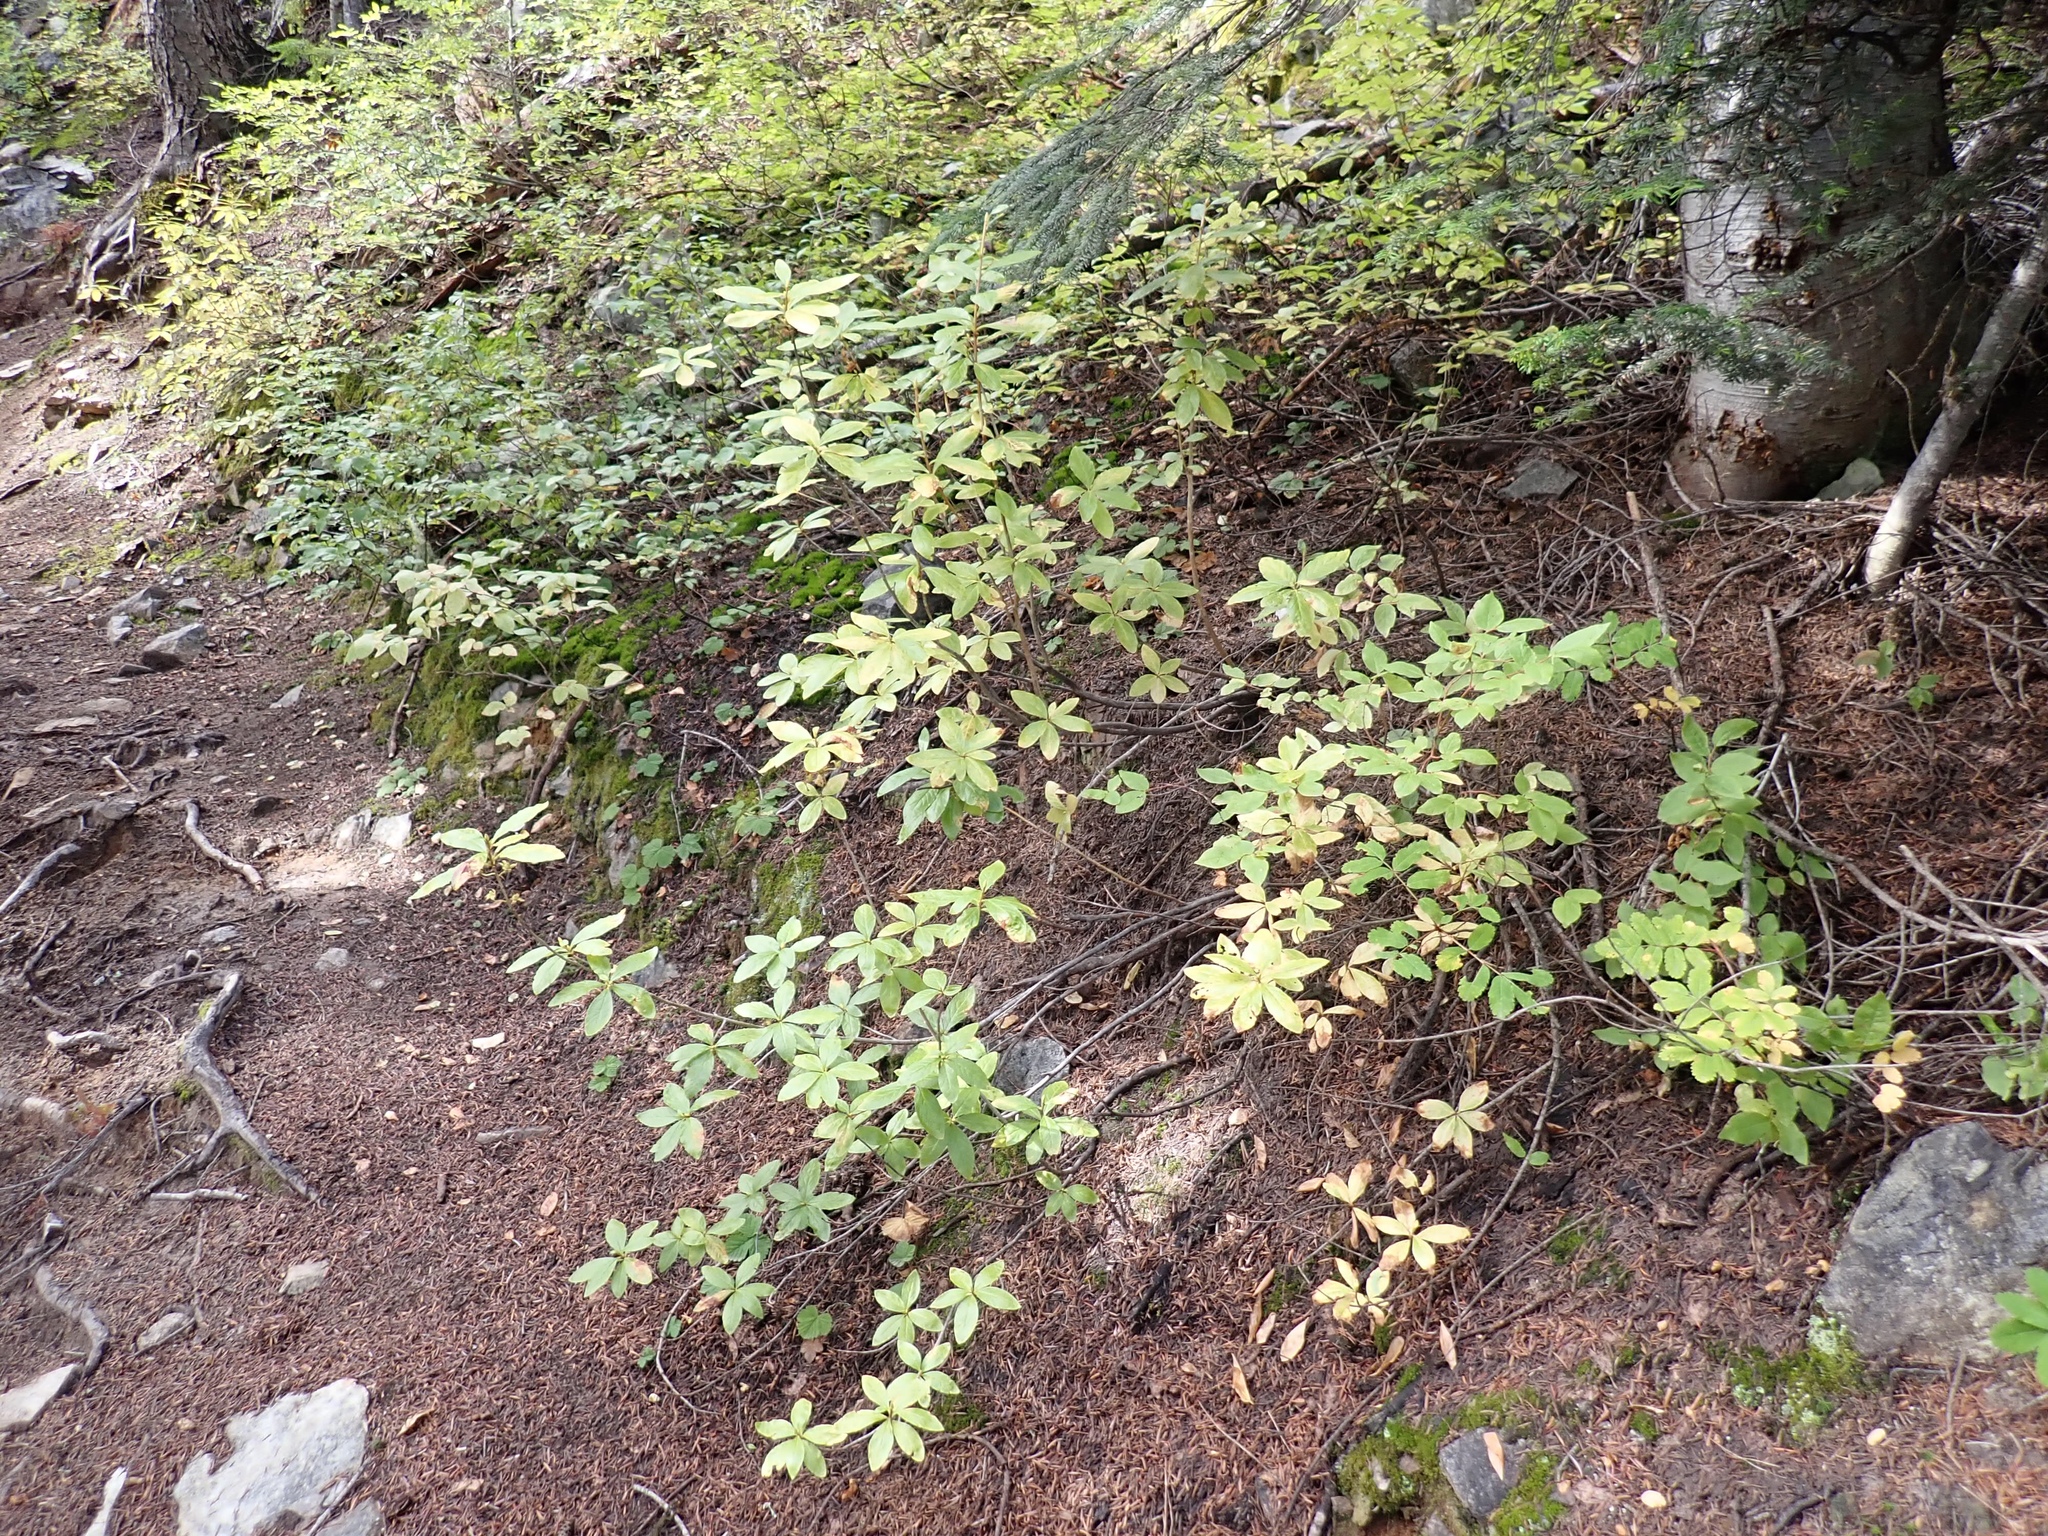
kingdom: Plantae
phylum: Tracheophyta
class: Magnoliopsida
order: Ericales
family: Ericaceae
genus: Rhododendron
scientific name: Rhododendron albiflorum
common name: White rhododendron
